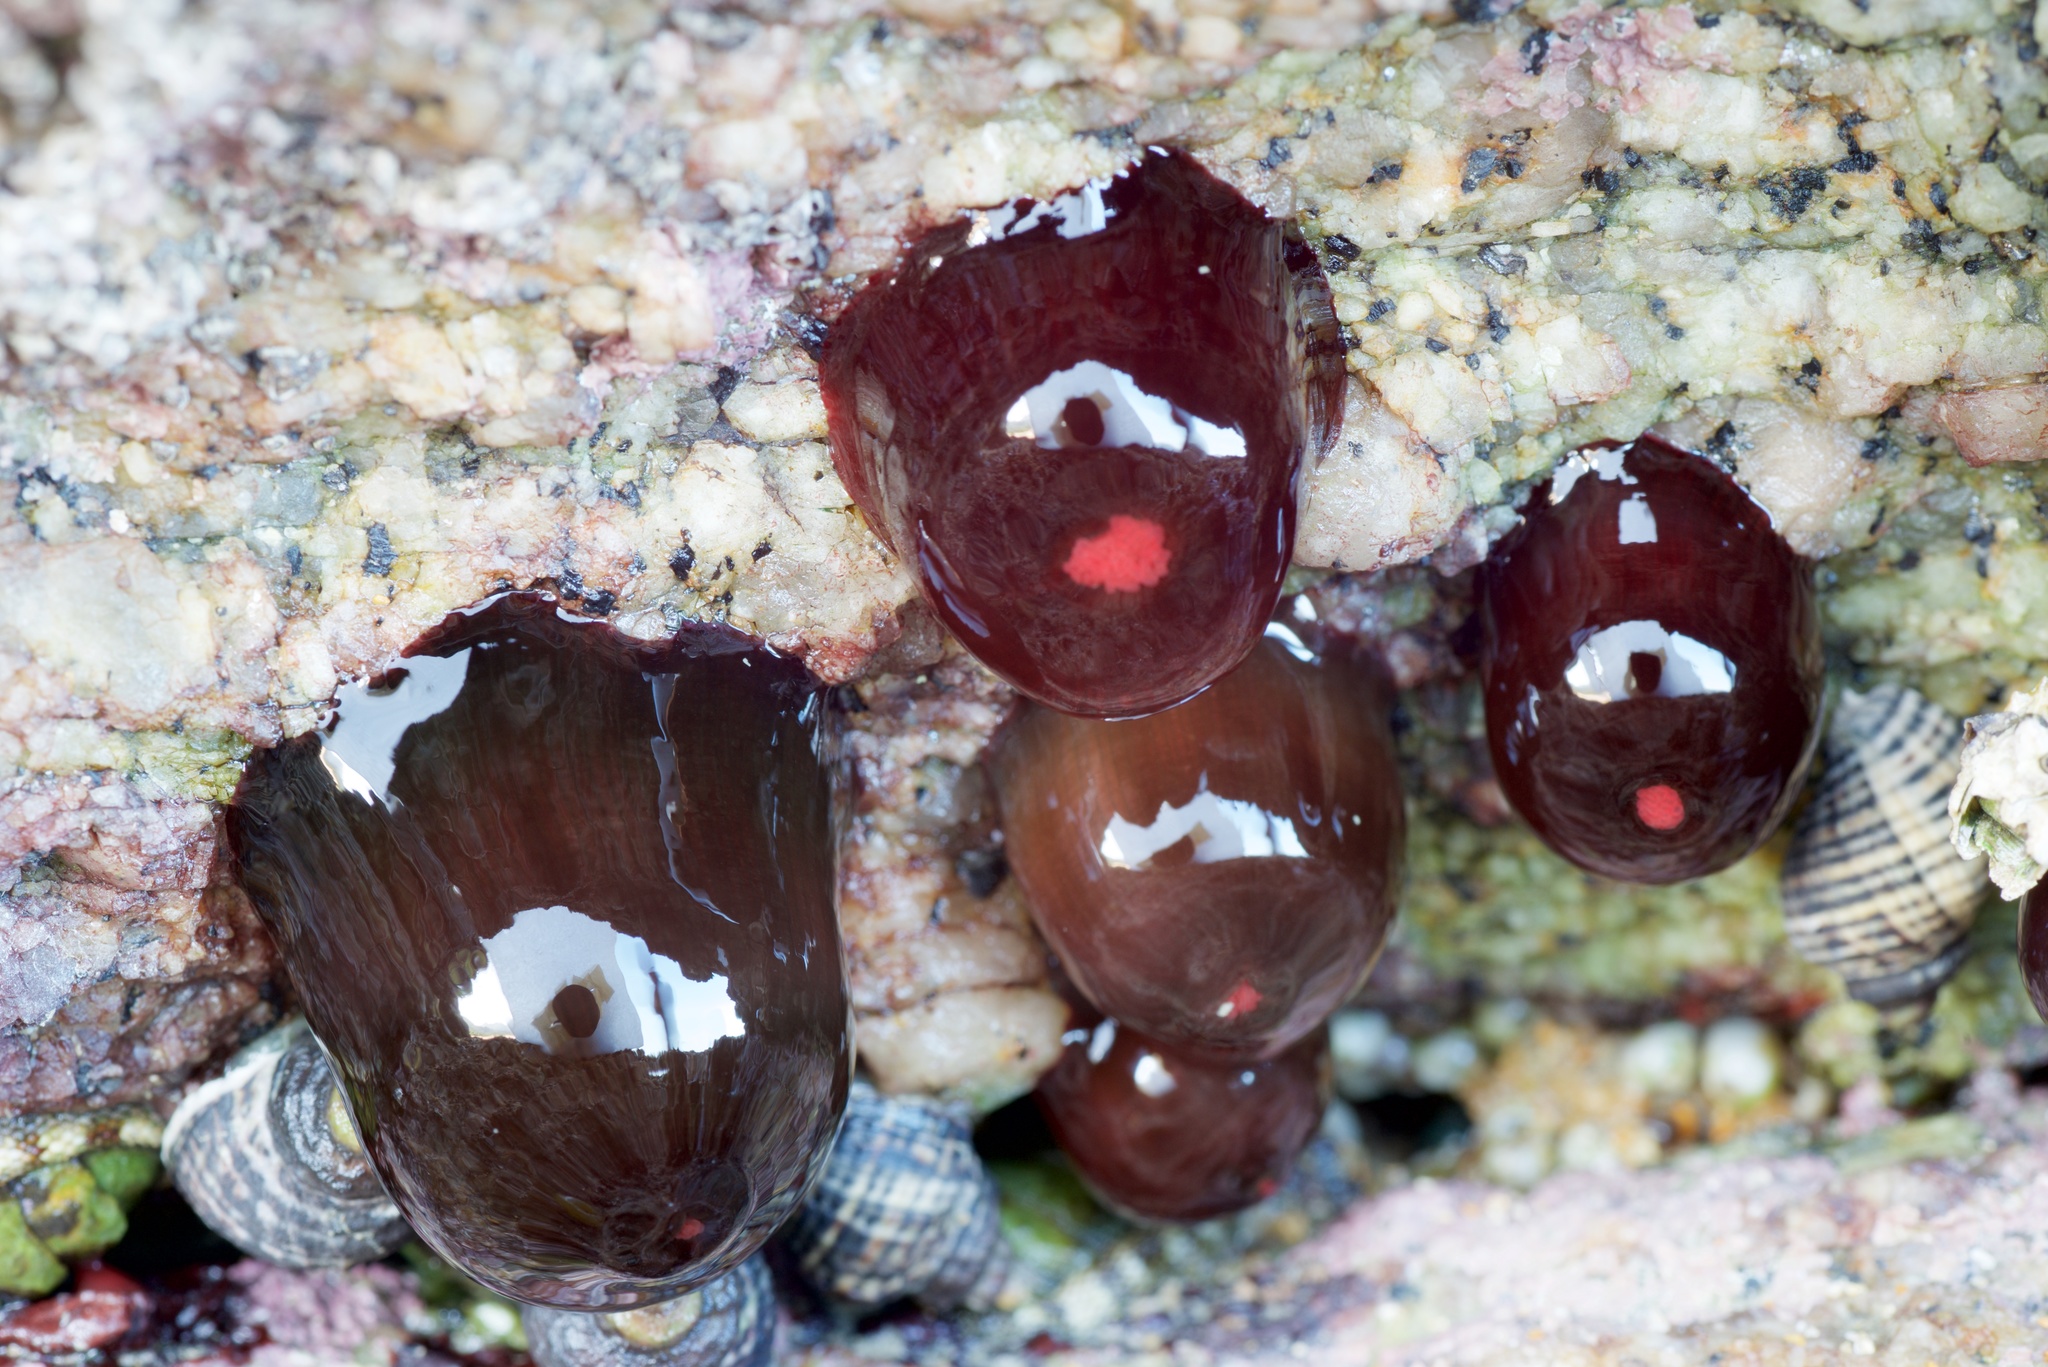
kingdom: Animalia
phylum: Cnidaria
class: Anthozoa
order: Actiniaria
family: Actiniidae
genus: Actinia
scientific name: Actinia tenebrosa
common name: Waratah anemone
